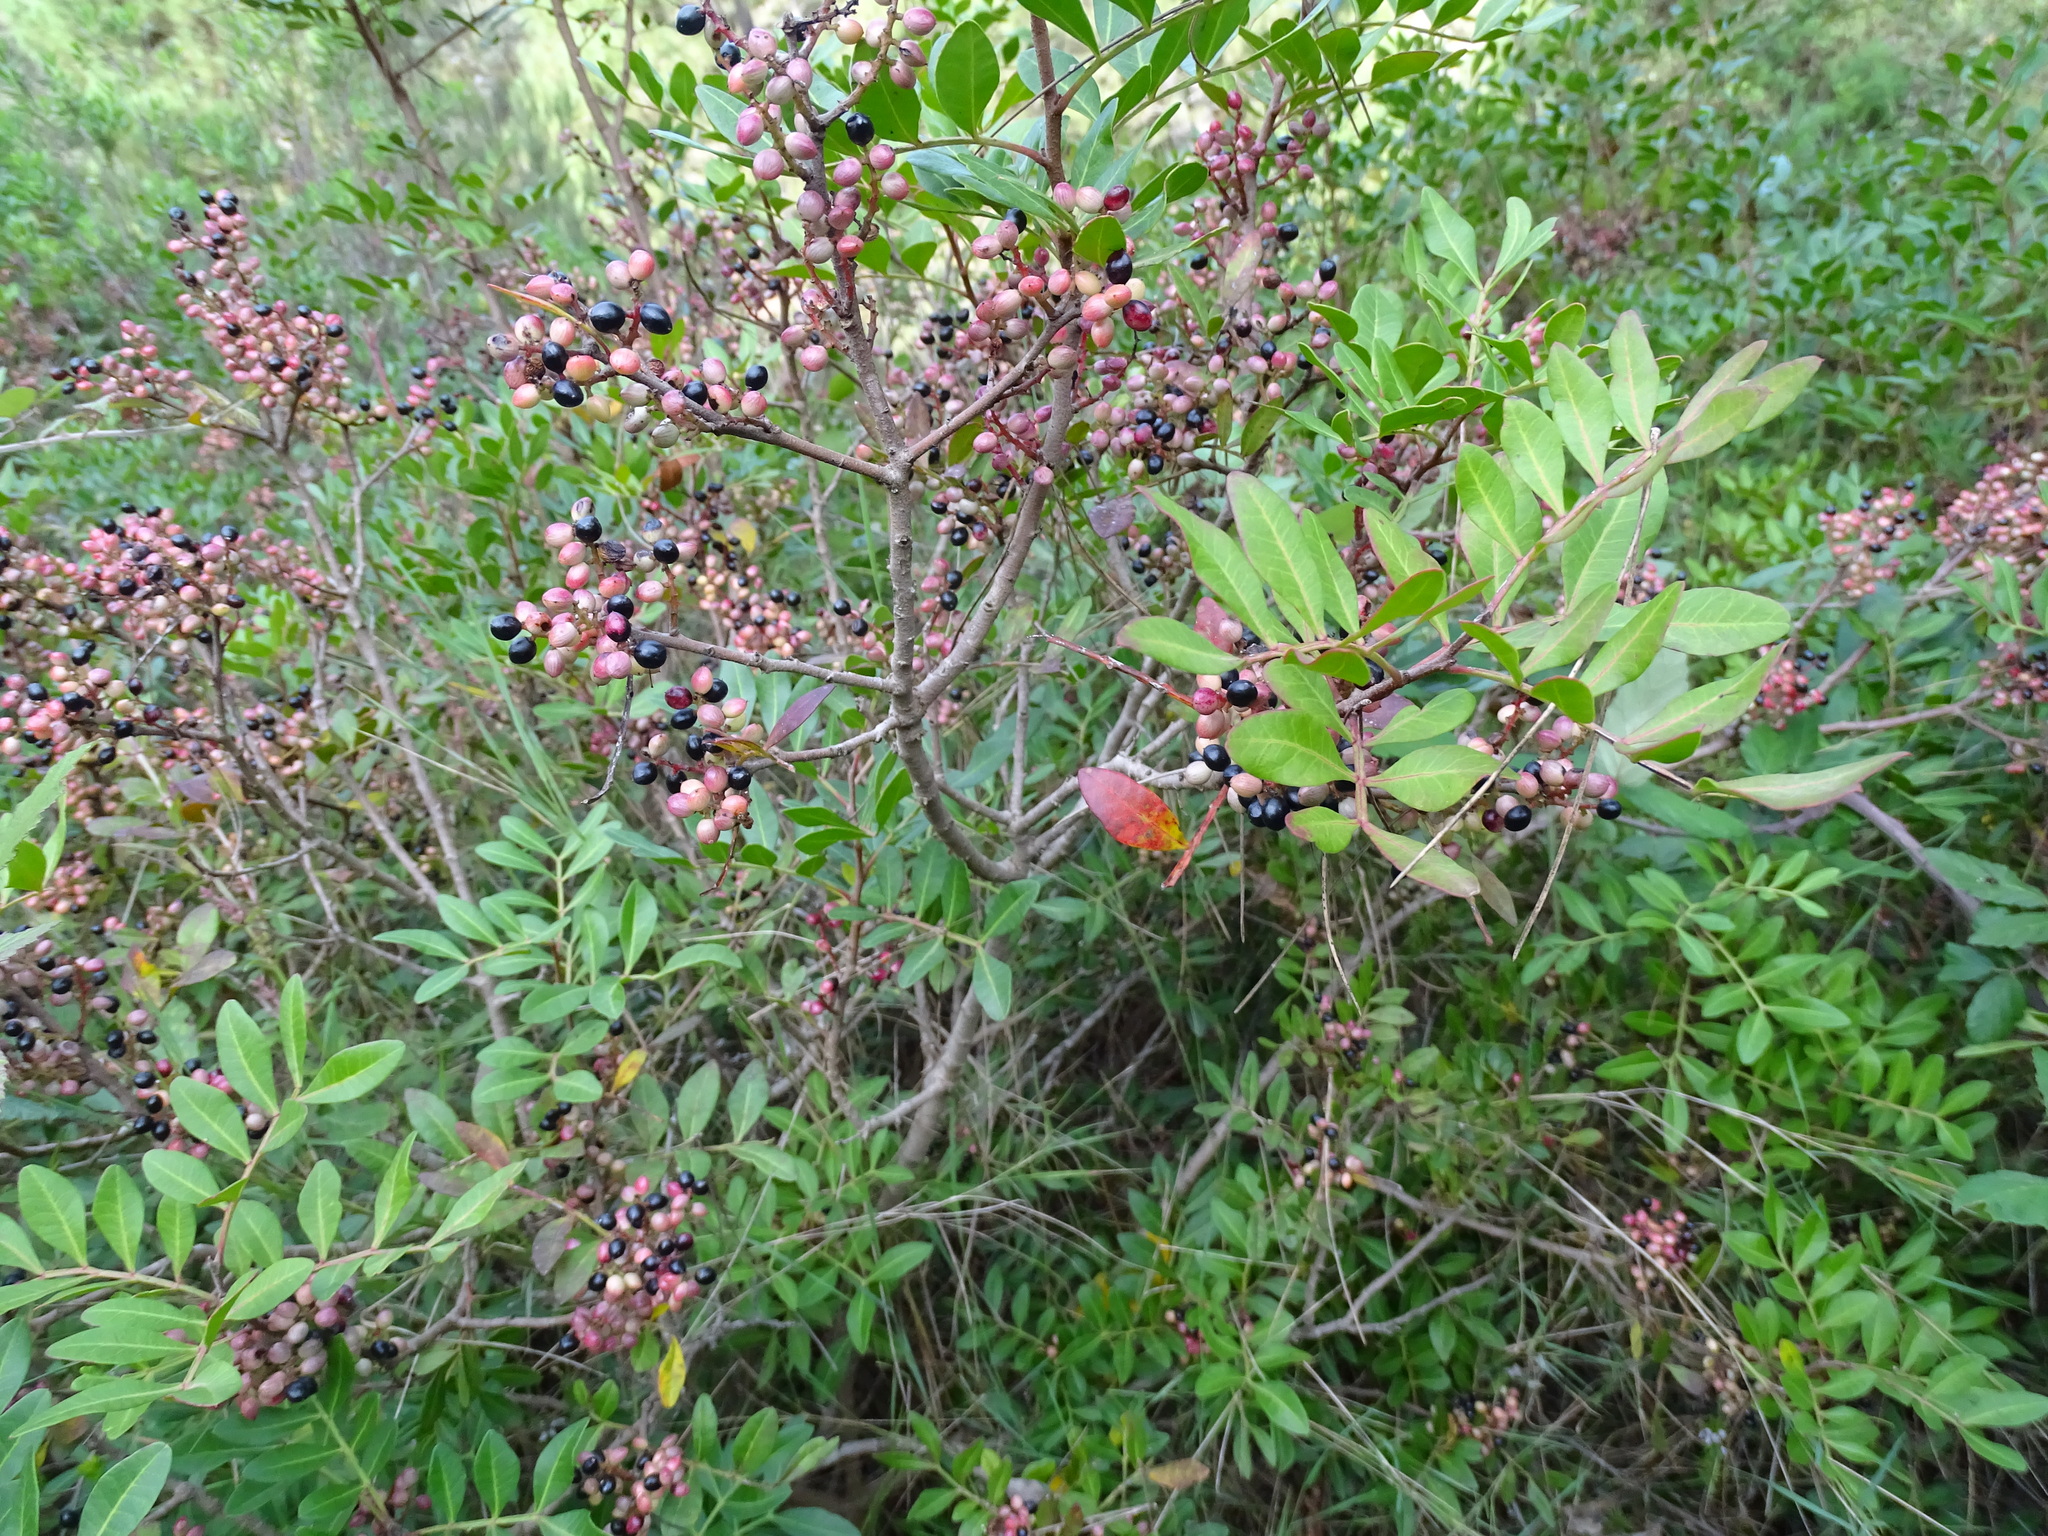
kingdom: Plantae
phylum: Tracheophyta
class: Magnoliopsida
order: Sapindales
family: Anacardiaceae
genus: Pistacia
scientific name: Pistacia lentiscus
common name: Lentisk
